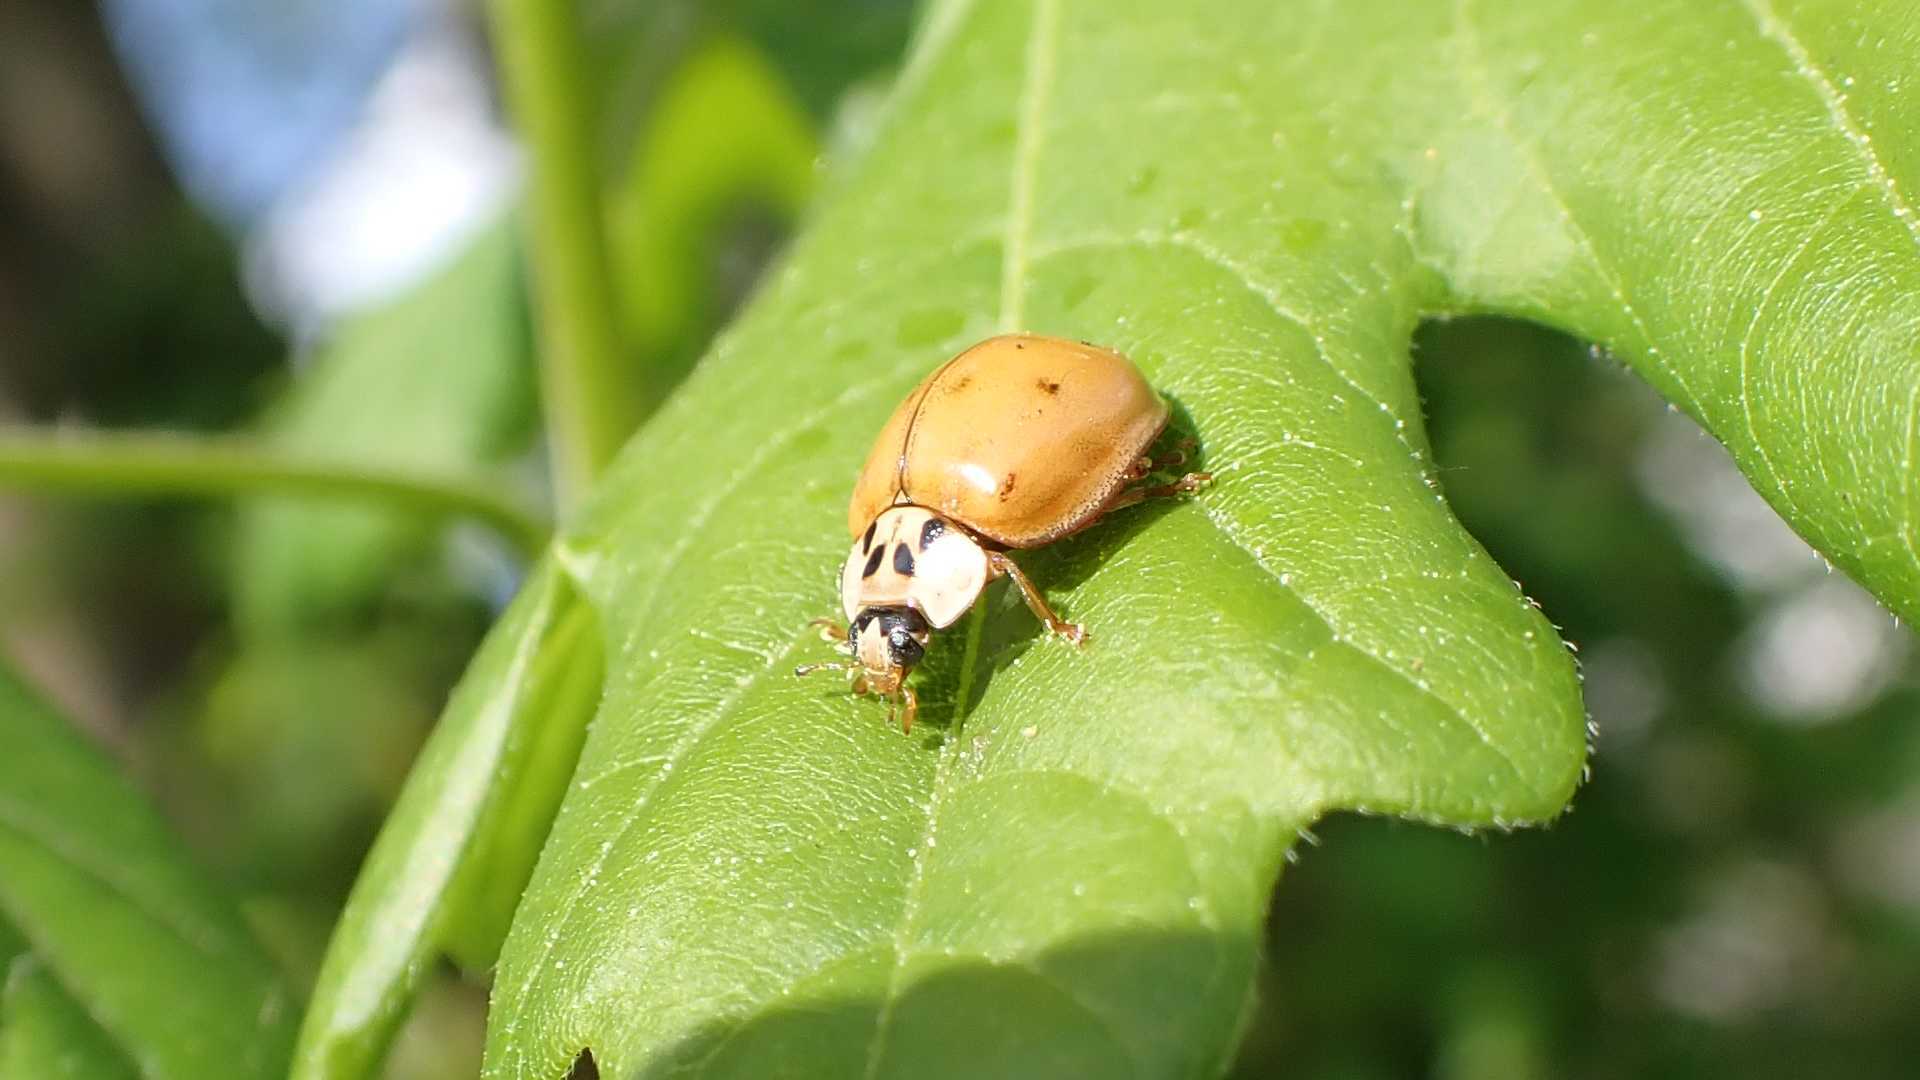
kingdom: Animalia
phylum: Arthropoda
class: Insecta
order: Coleoptera
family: Coccinellidae
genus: Harmonia
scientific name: Harmonia axyridis
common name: Harlequin ladybird
